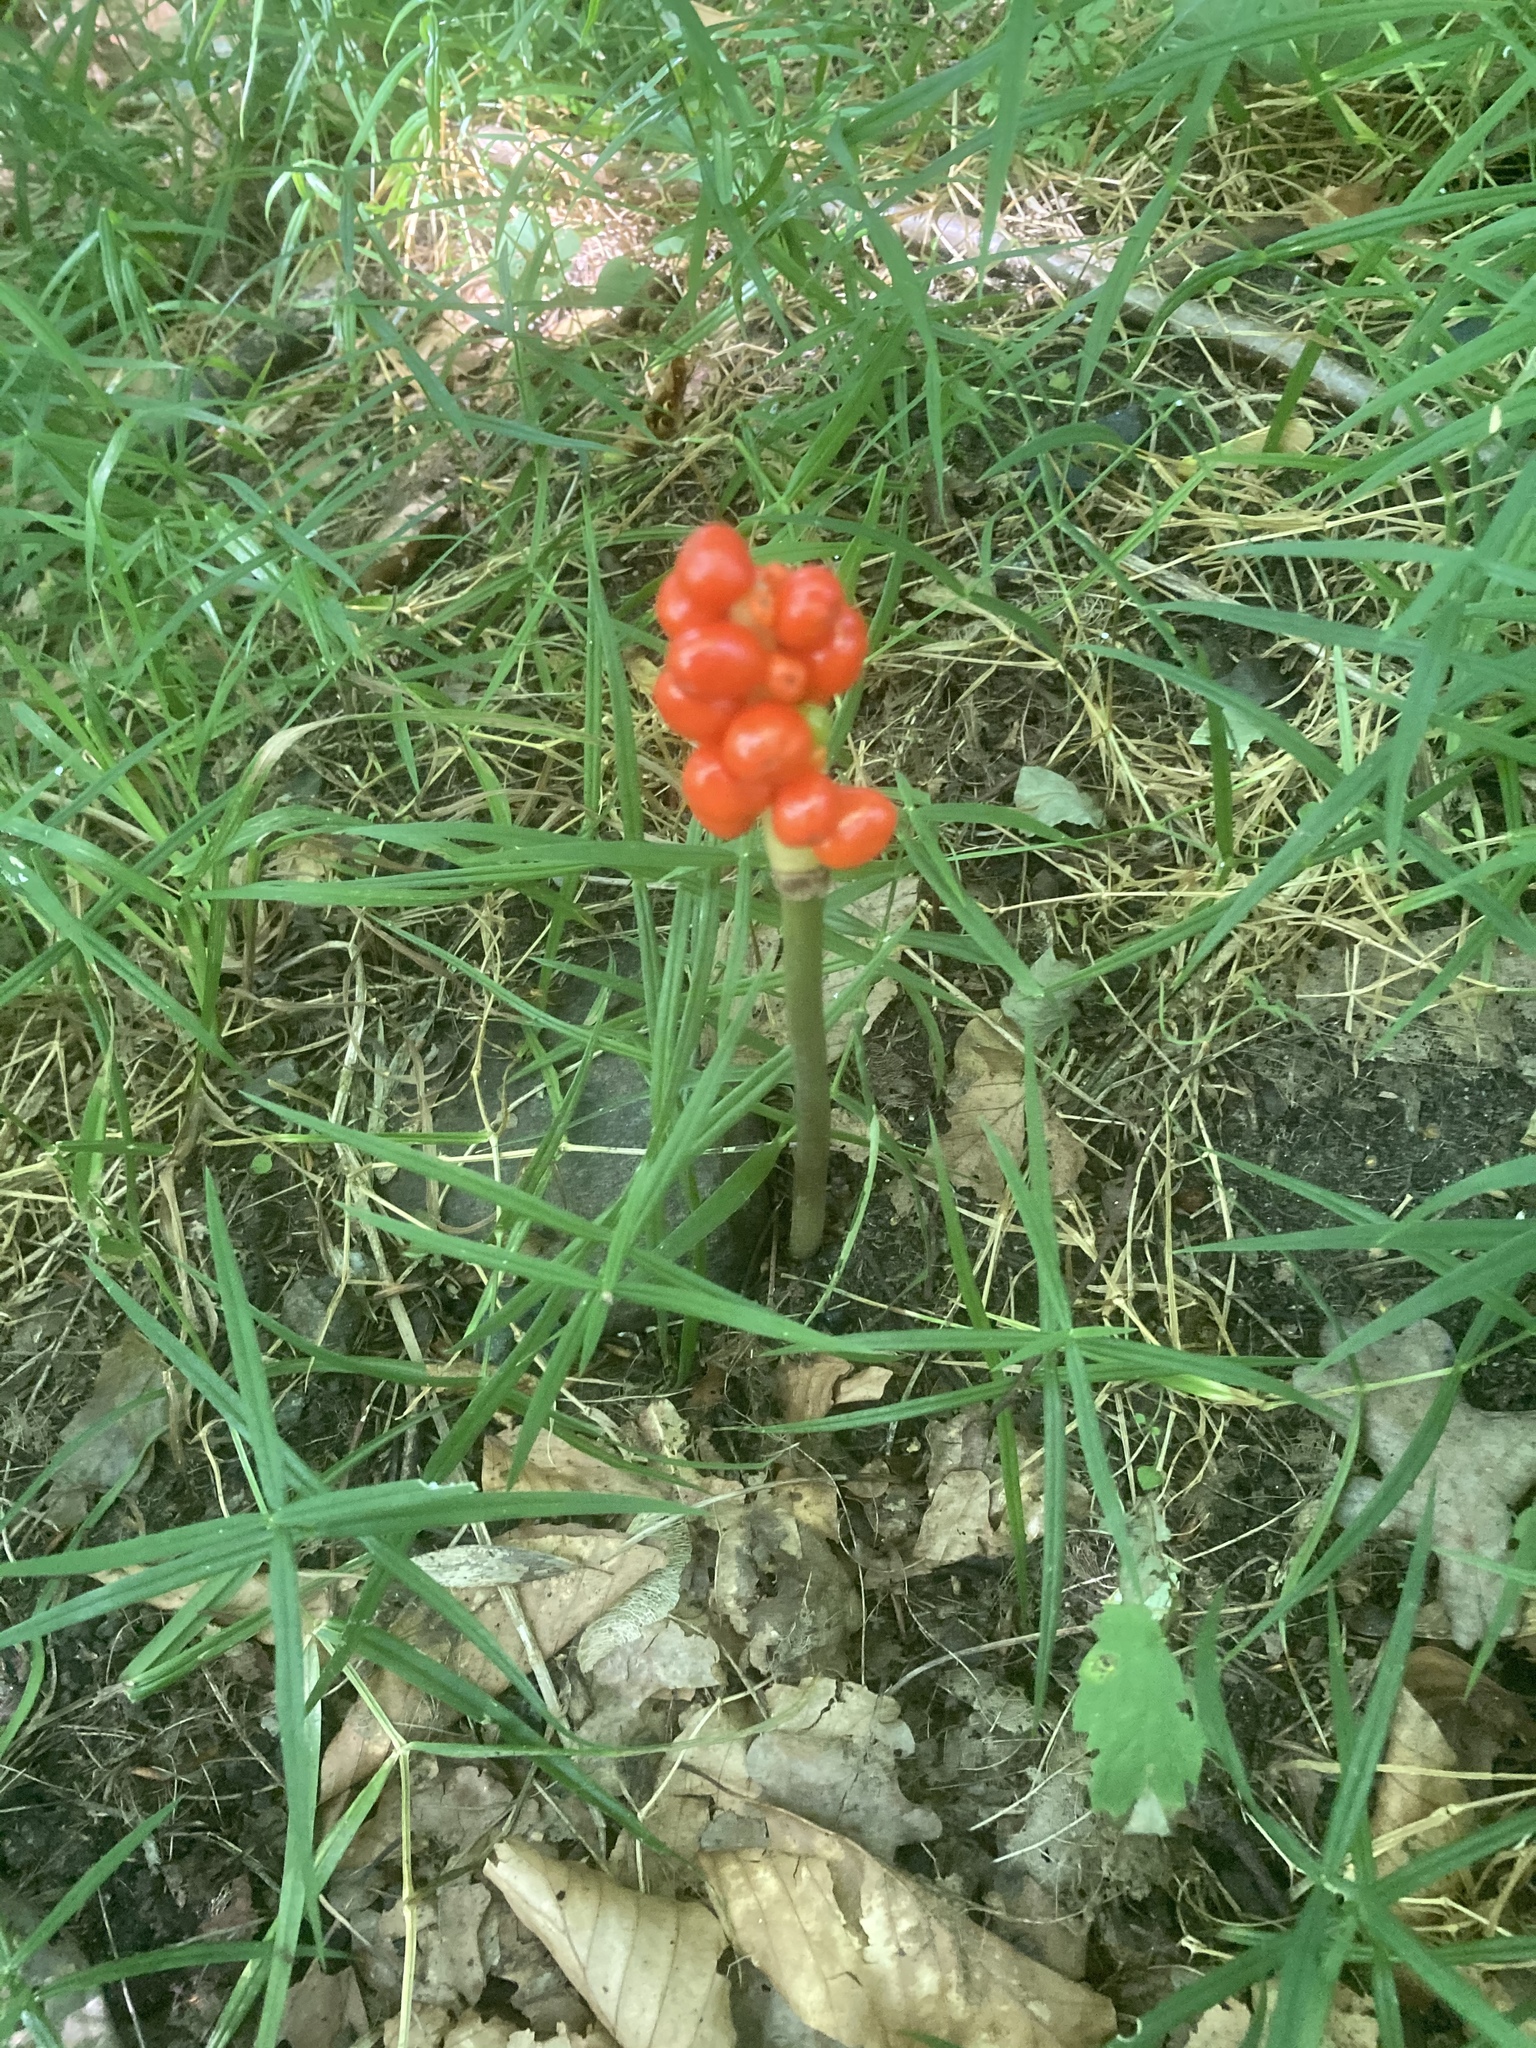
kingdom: Plantae
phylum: Tracheophyta
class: Liliopsida
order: Alismatales
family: Araceae
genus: Arum
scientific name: Arum maculatum
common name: Lords-and-ladies
